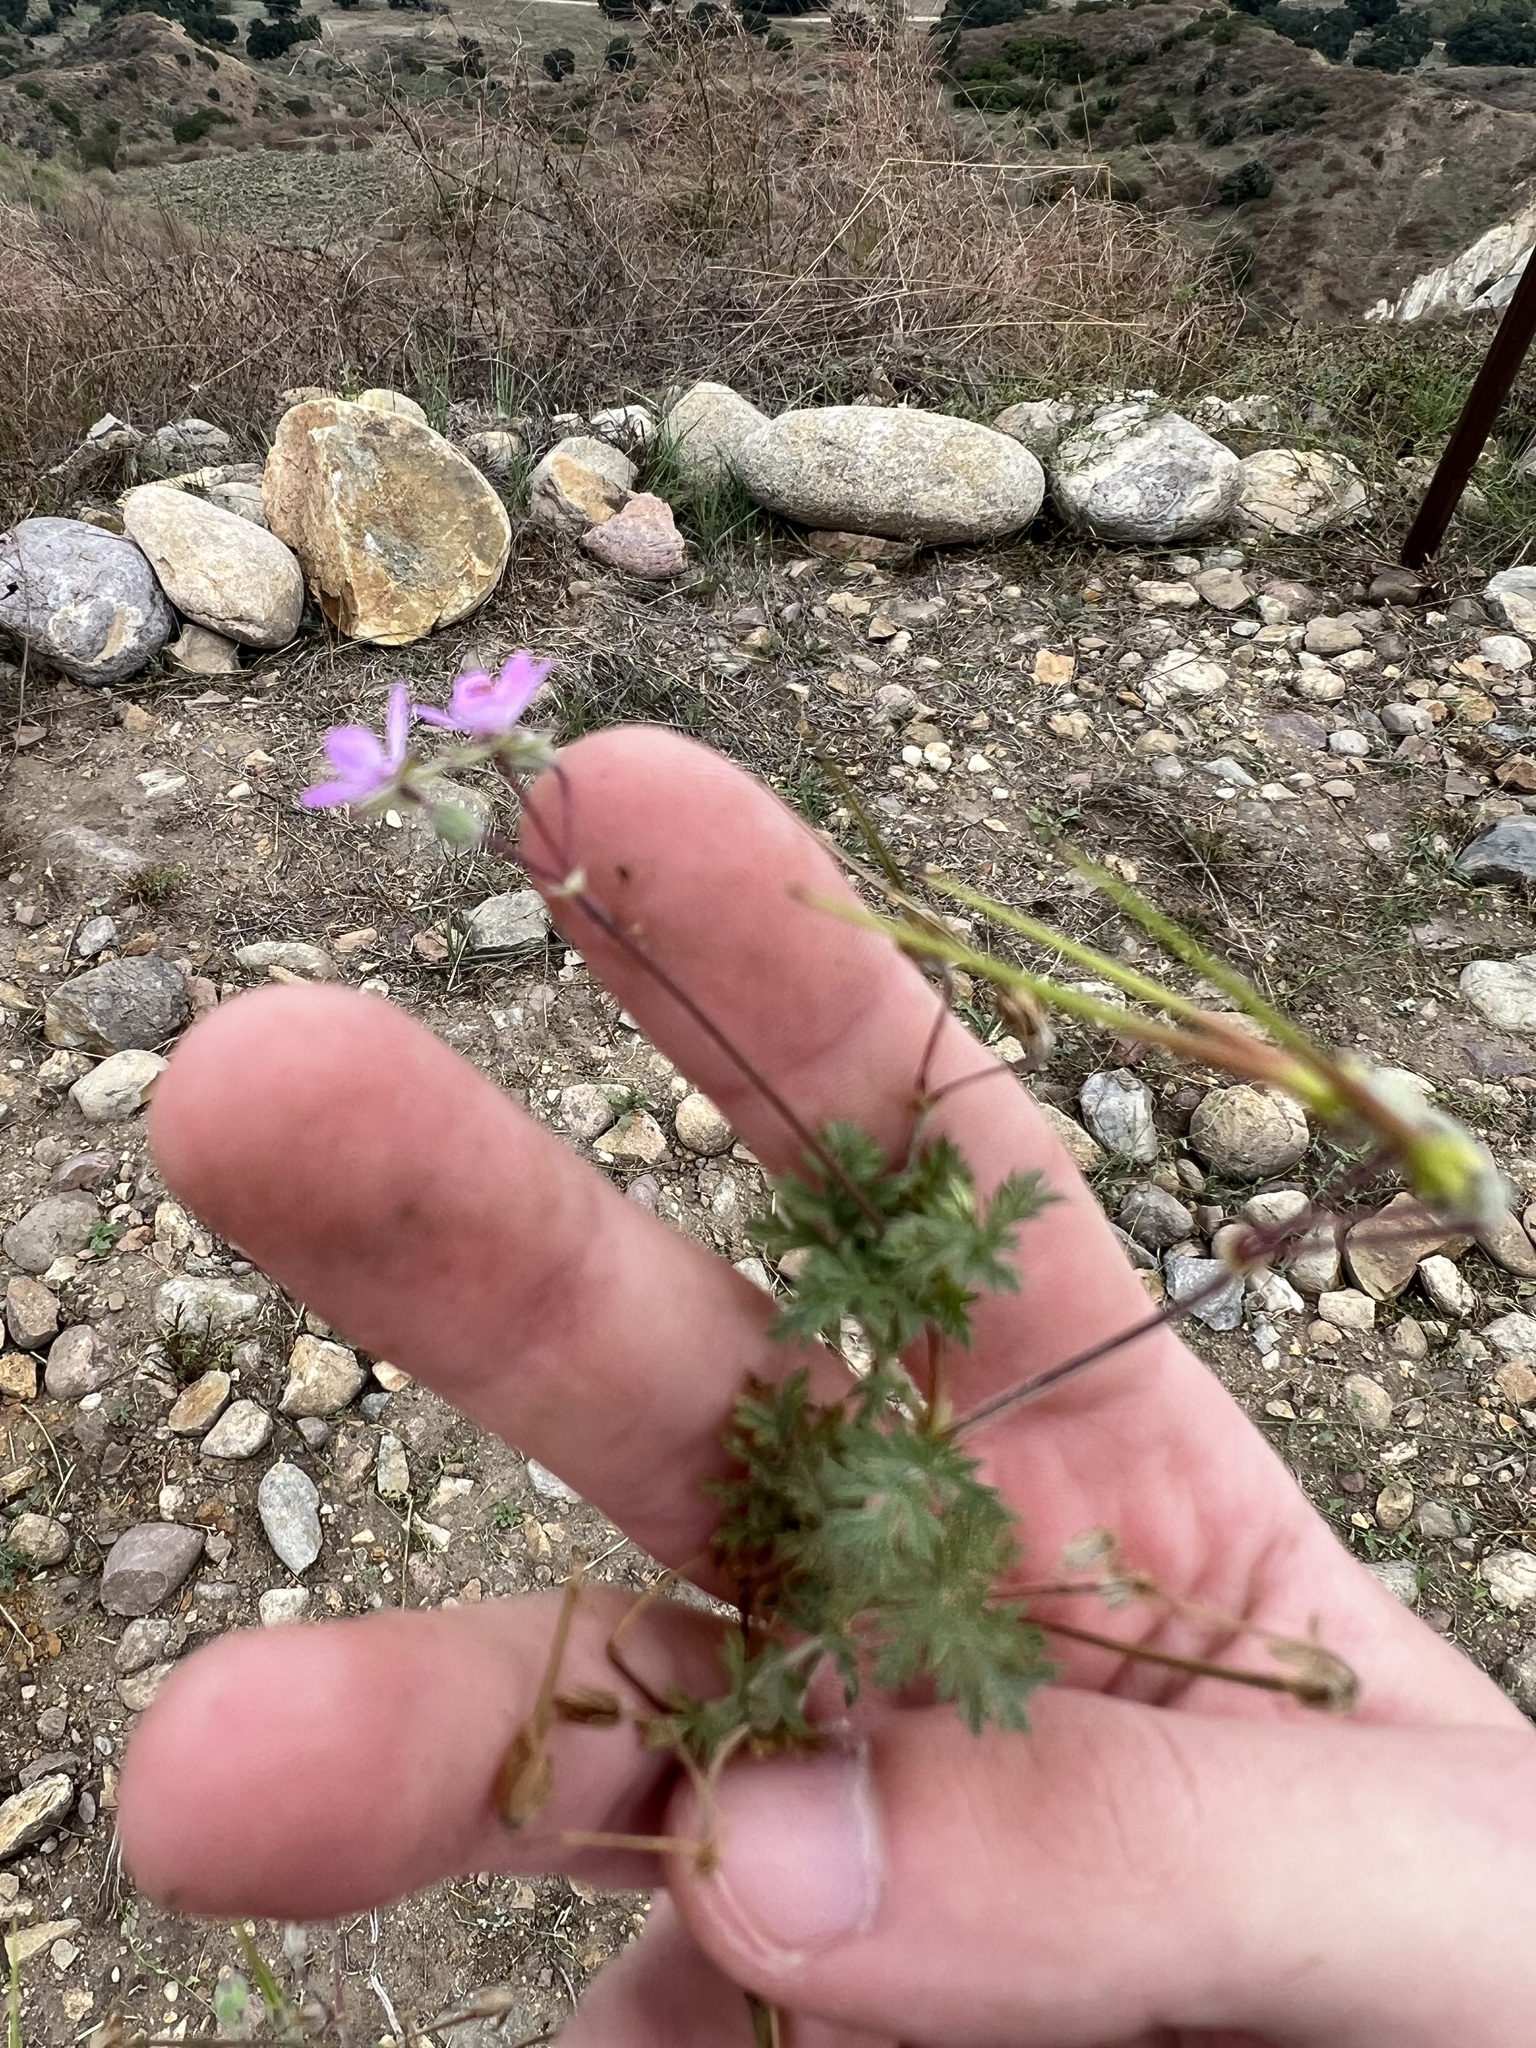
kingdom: Plantae
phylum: Tracheophyta
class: Magnoliopsida
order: Geraniales
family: Geraniaceae
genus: Erodium
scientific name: Erodium cicutarium
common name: Common stork's-bill
